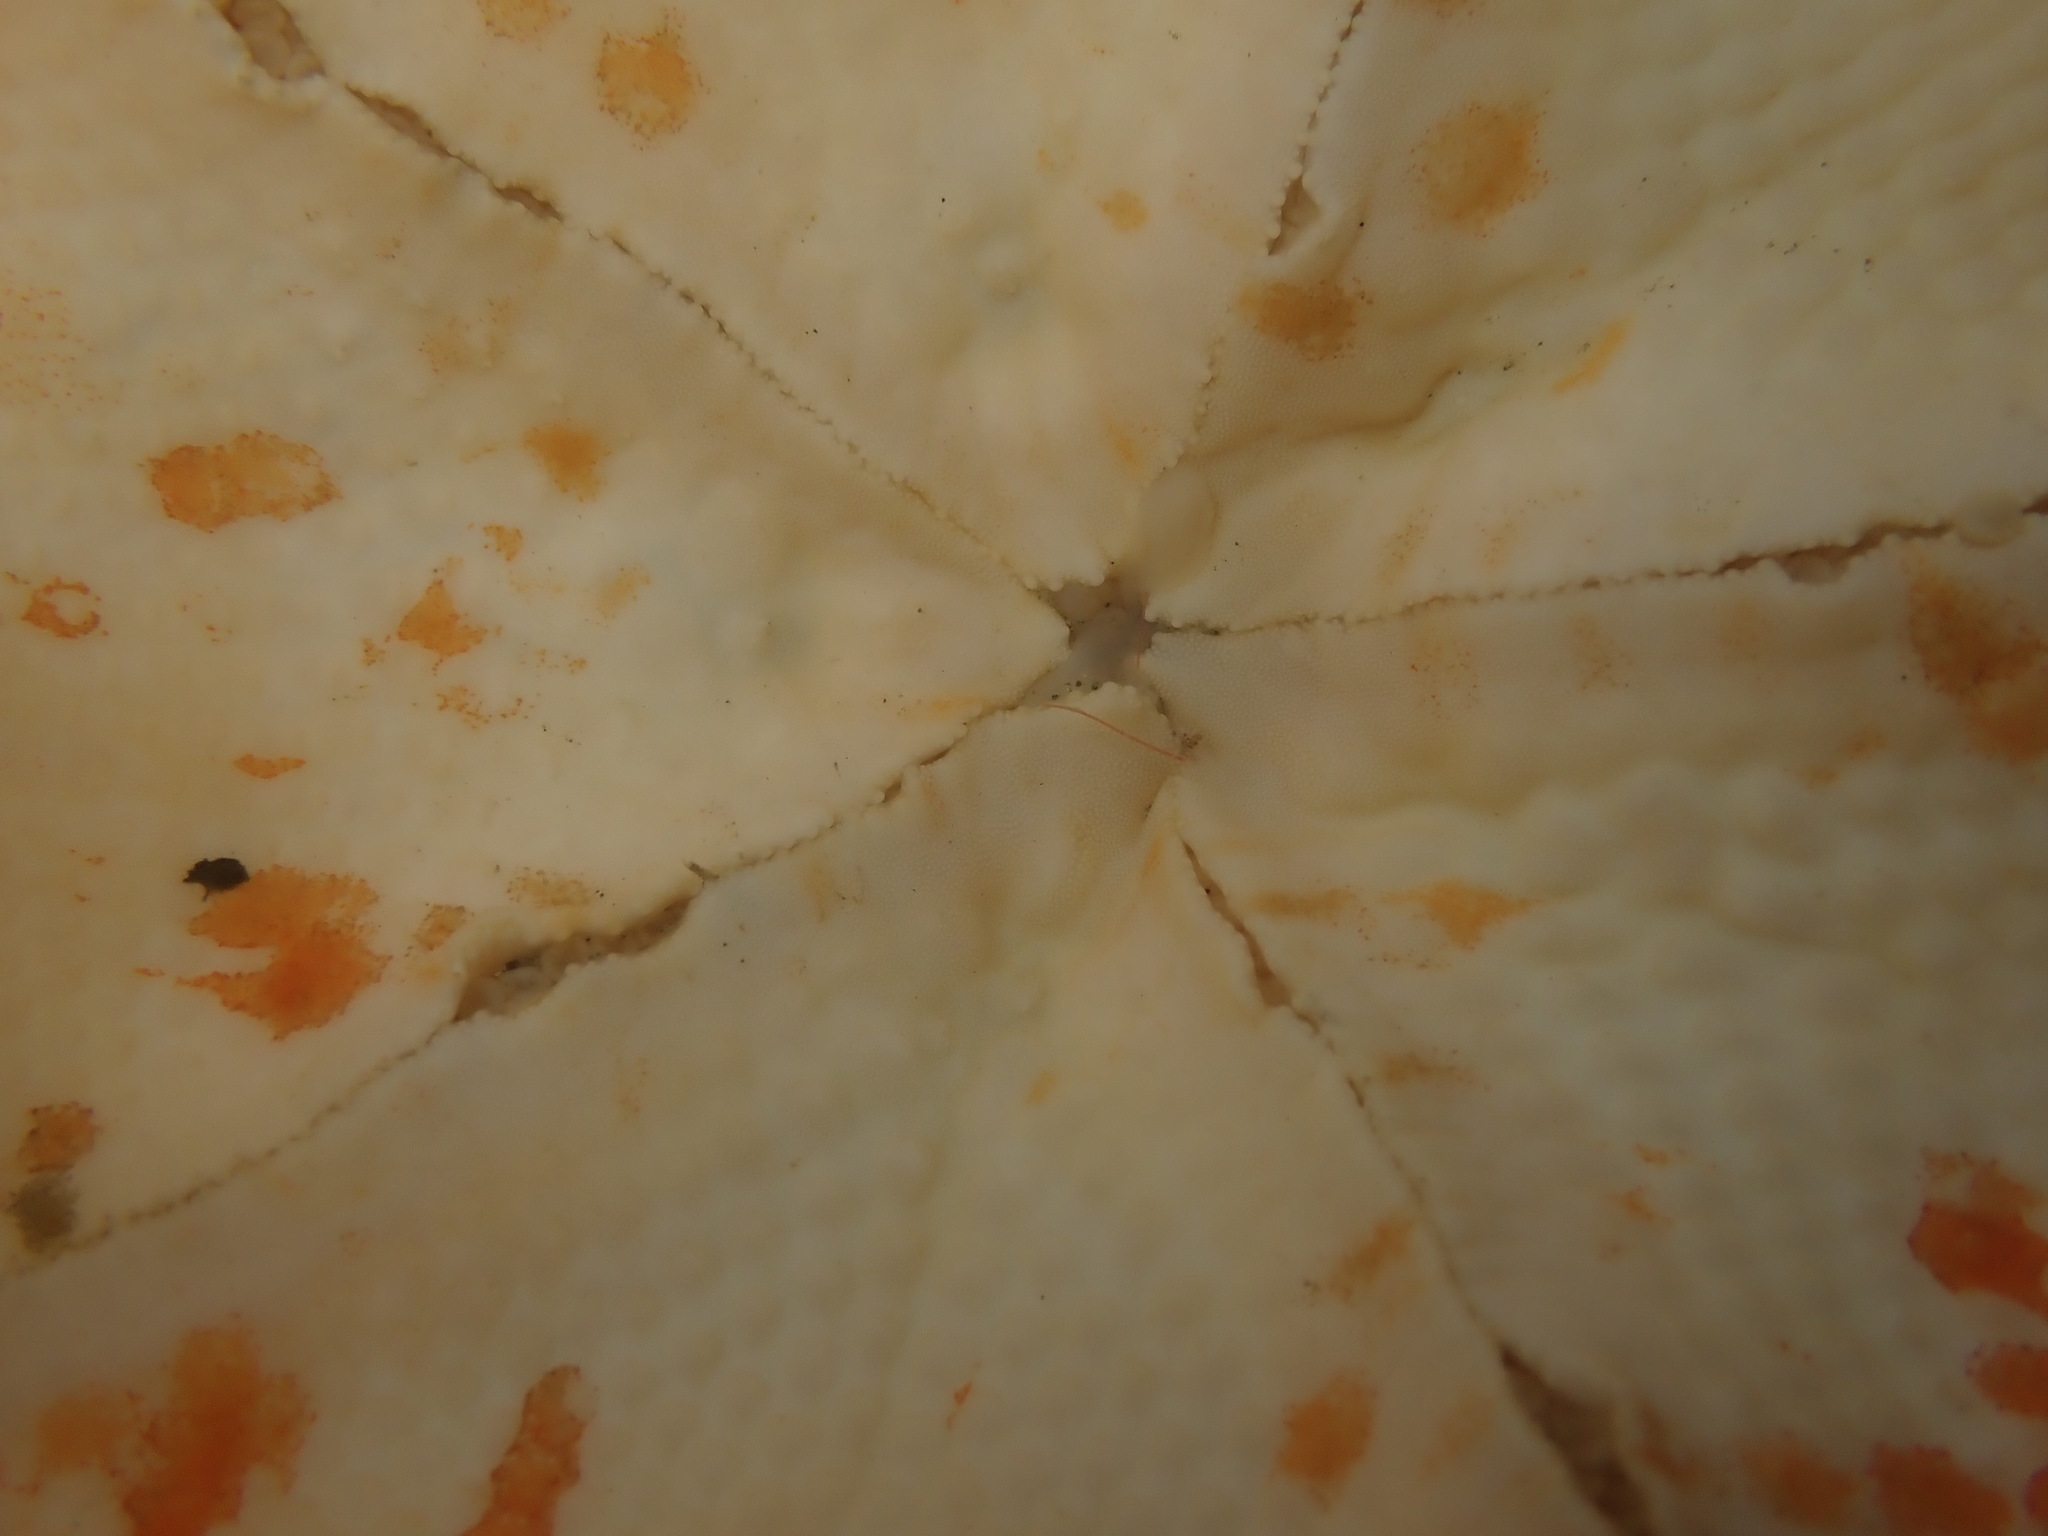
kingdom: Animalia
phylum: Echinodermata
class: Asteroidea
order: Valvatida
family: Asterinidae
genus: Stegnaster
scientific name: Stegnaster inflatus
